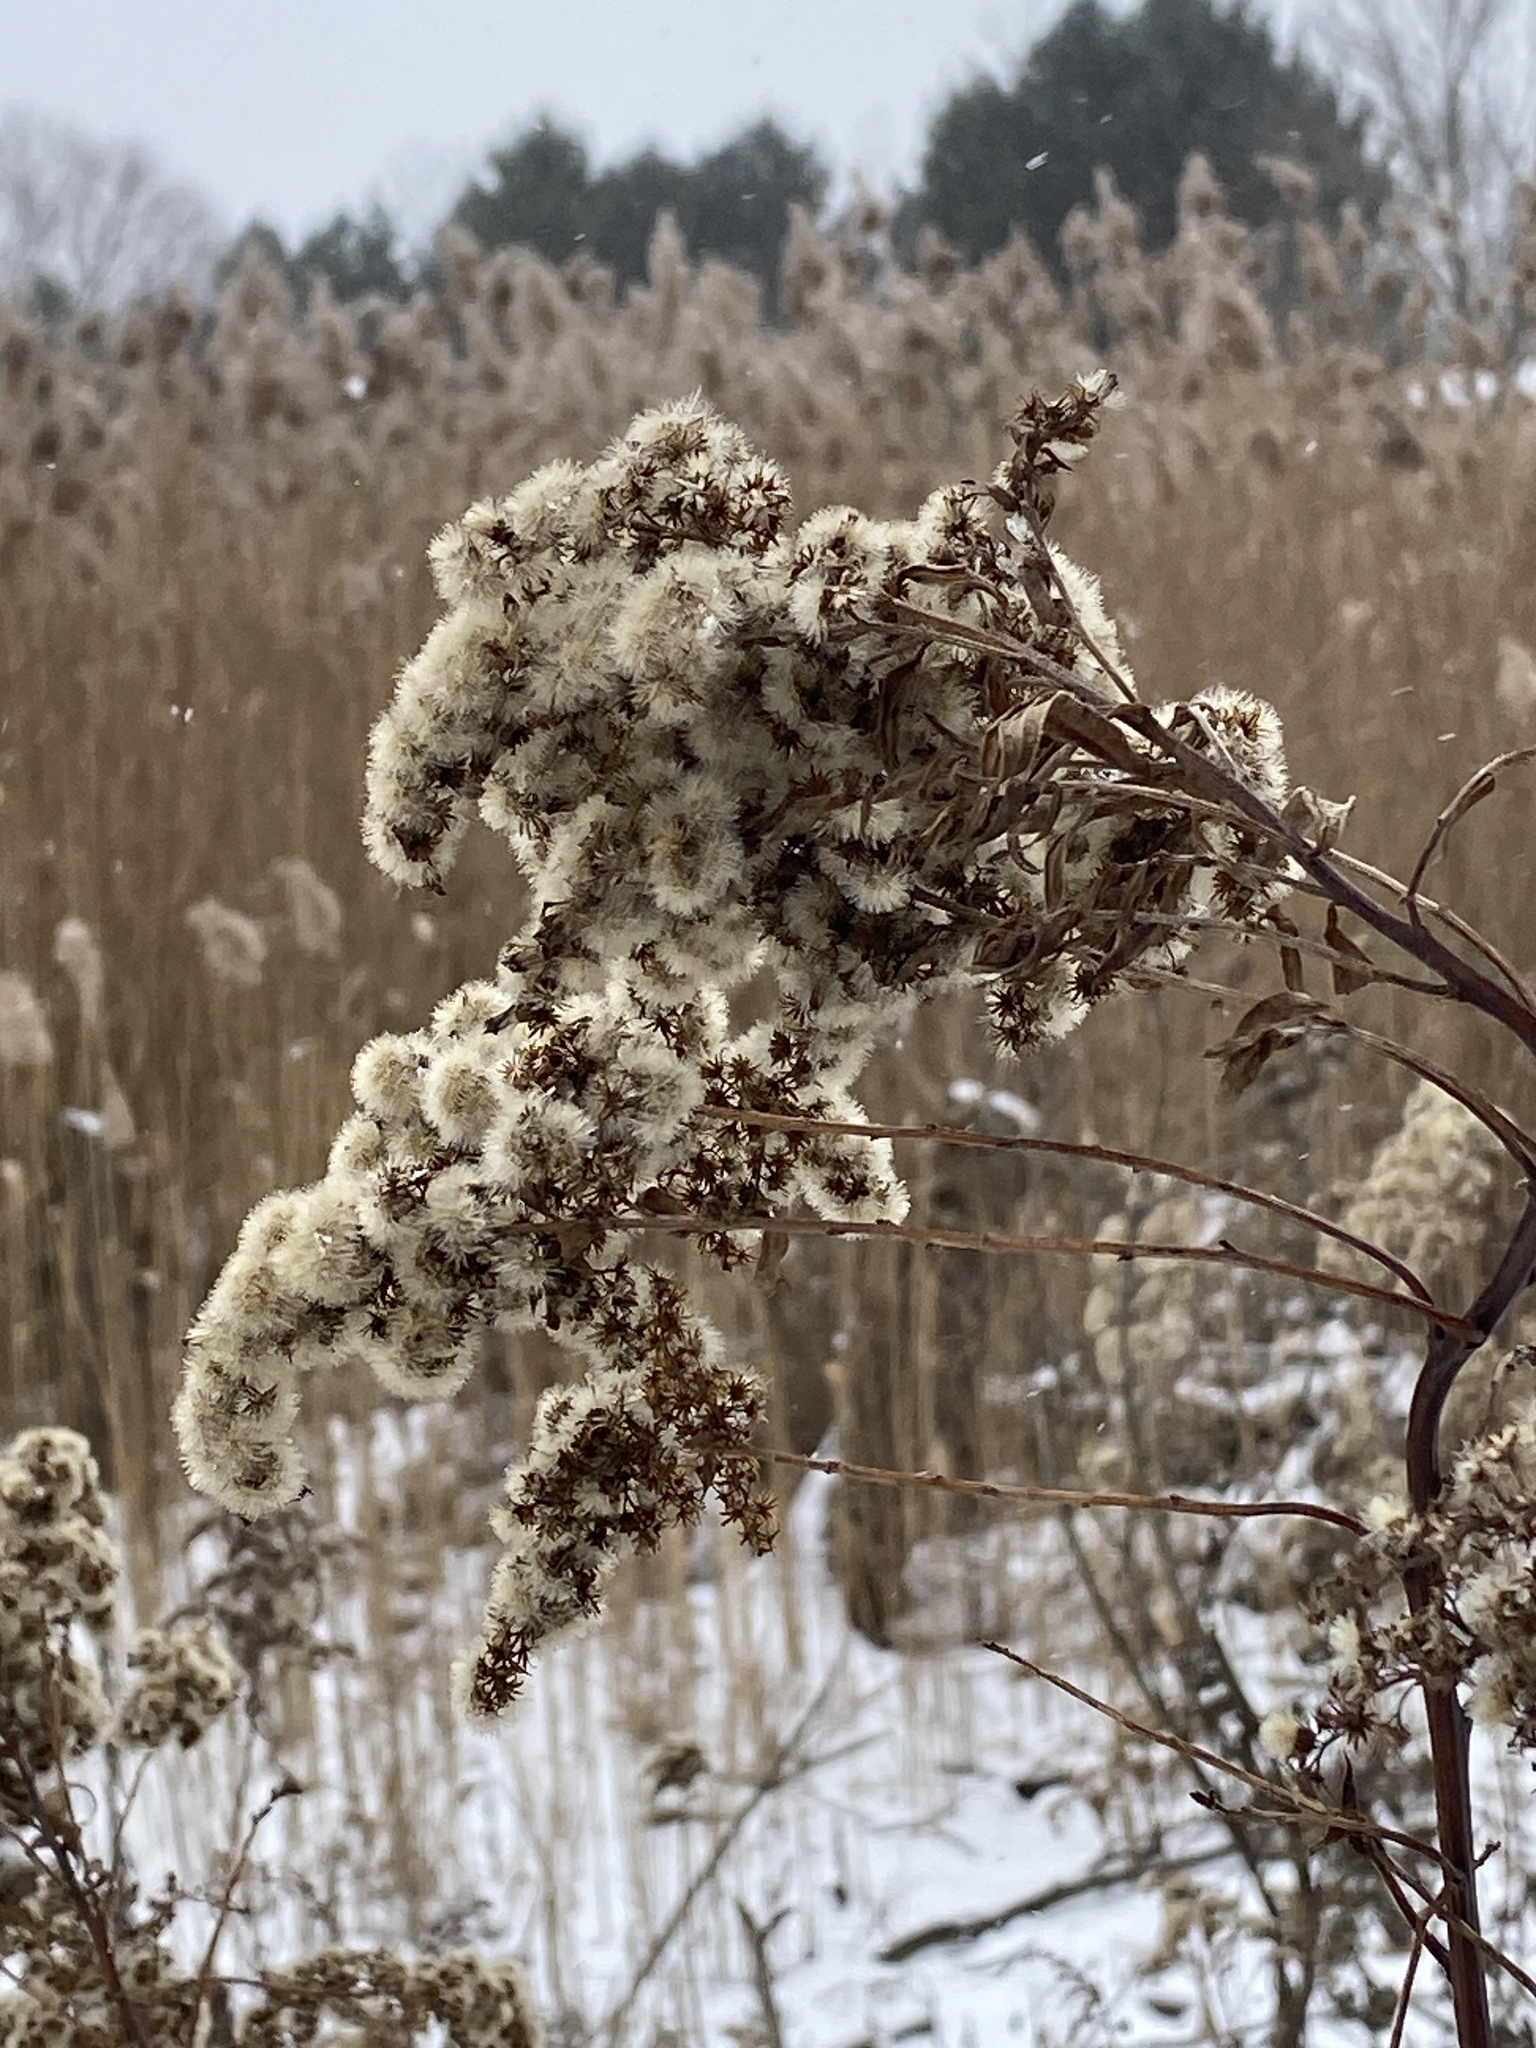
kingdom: Plantae
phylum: Tracheophyta
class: Magnoliopsida
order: Asterales
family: Asteraceae
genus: Solidago
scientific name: Solidago
